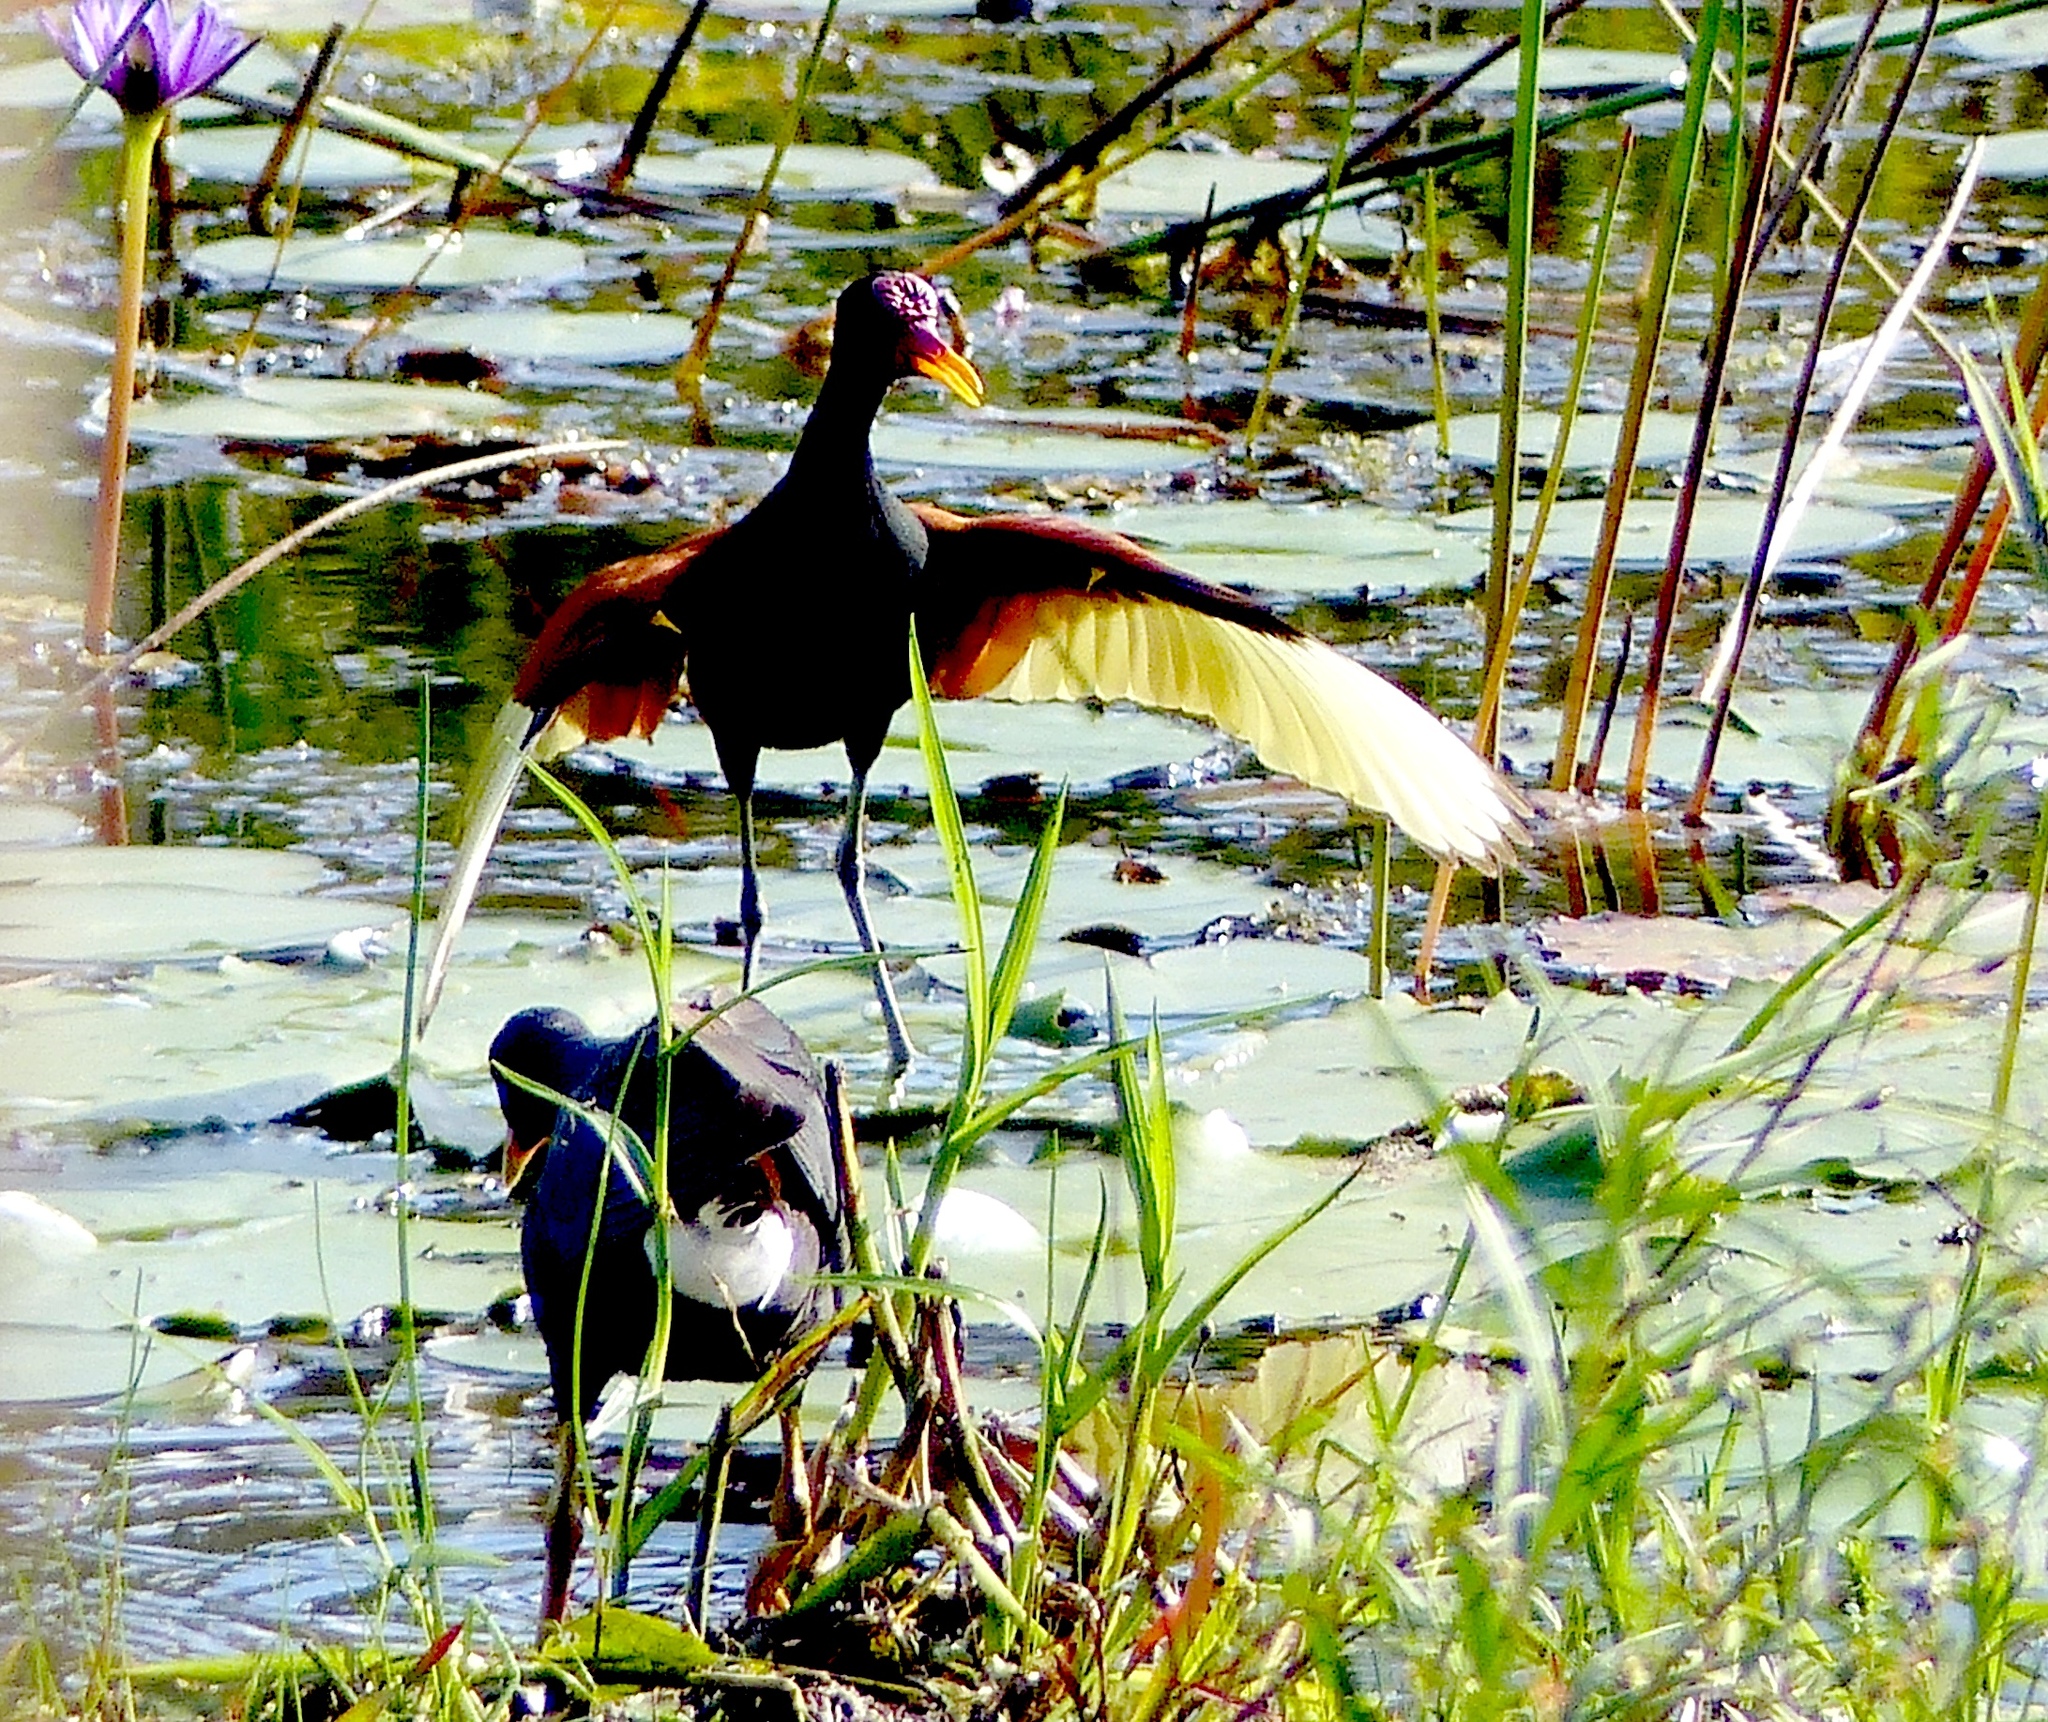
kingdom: Animalia
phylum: Chordata
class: Aves
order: Charadriiformes
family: Jacanidae
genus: Jacana
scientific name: Jacana jacana
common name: Wattled jacana
